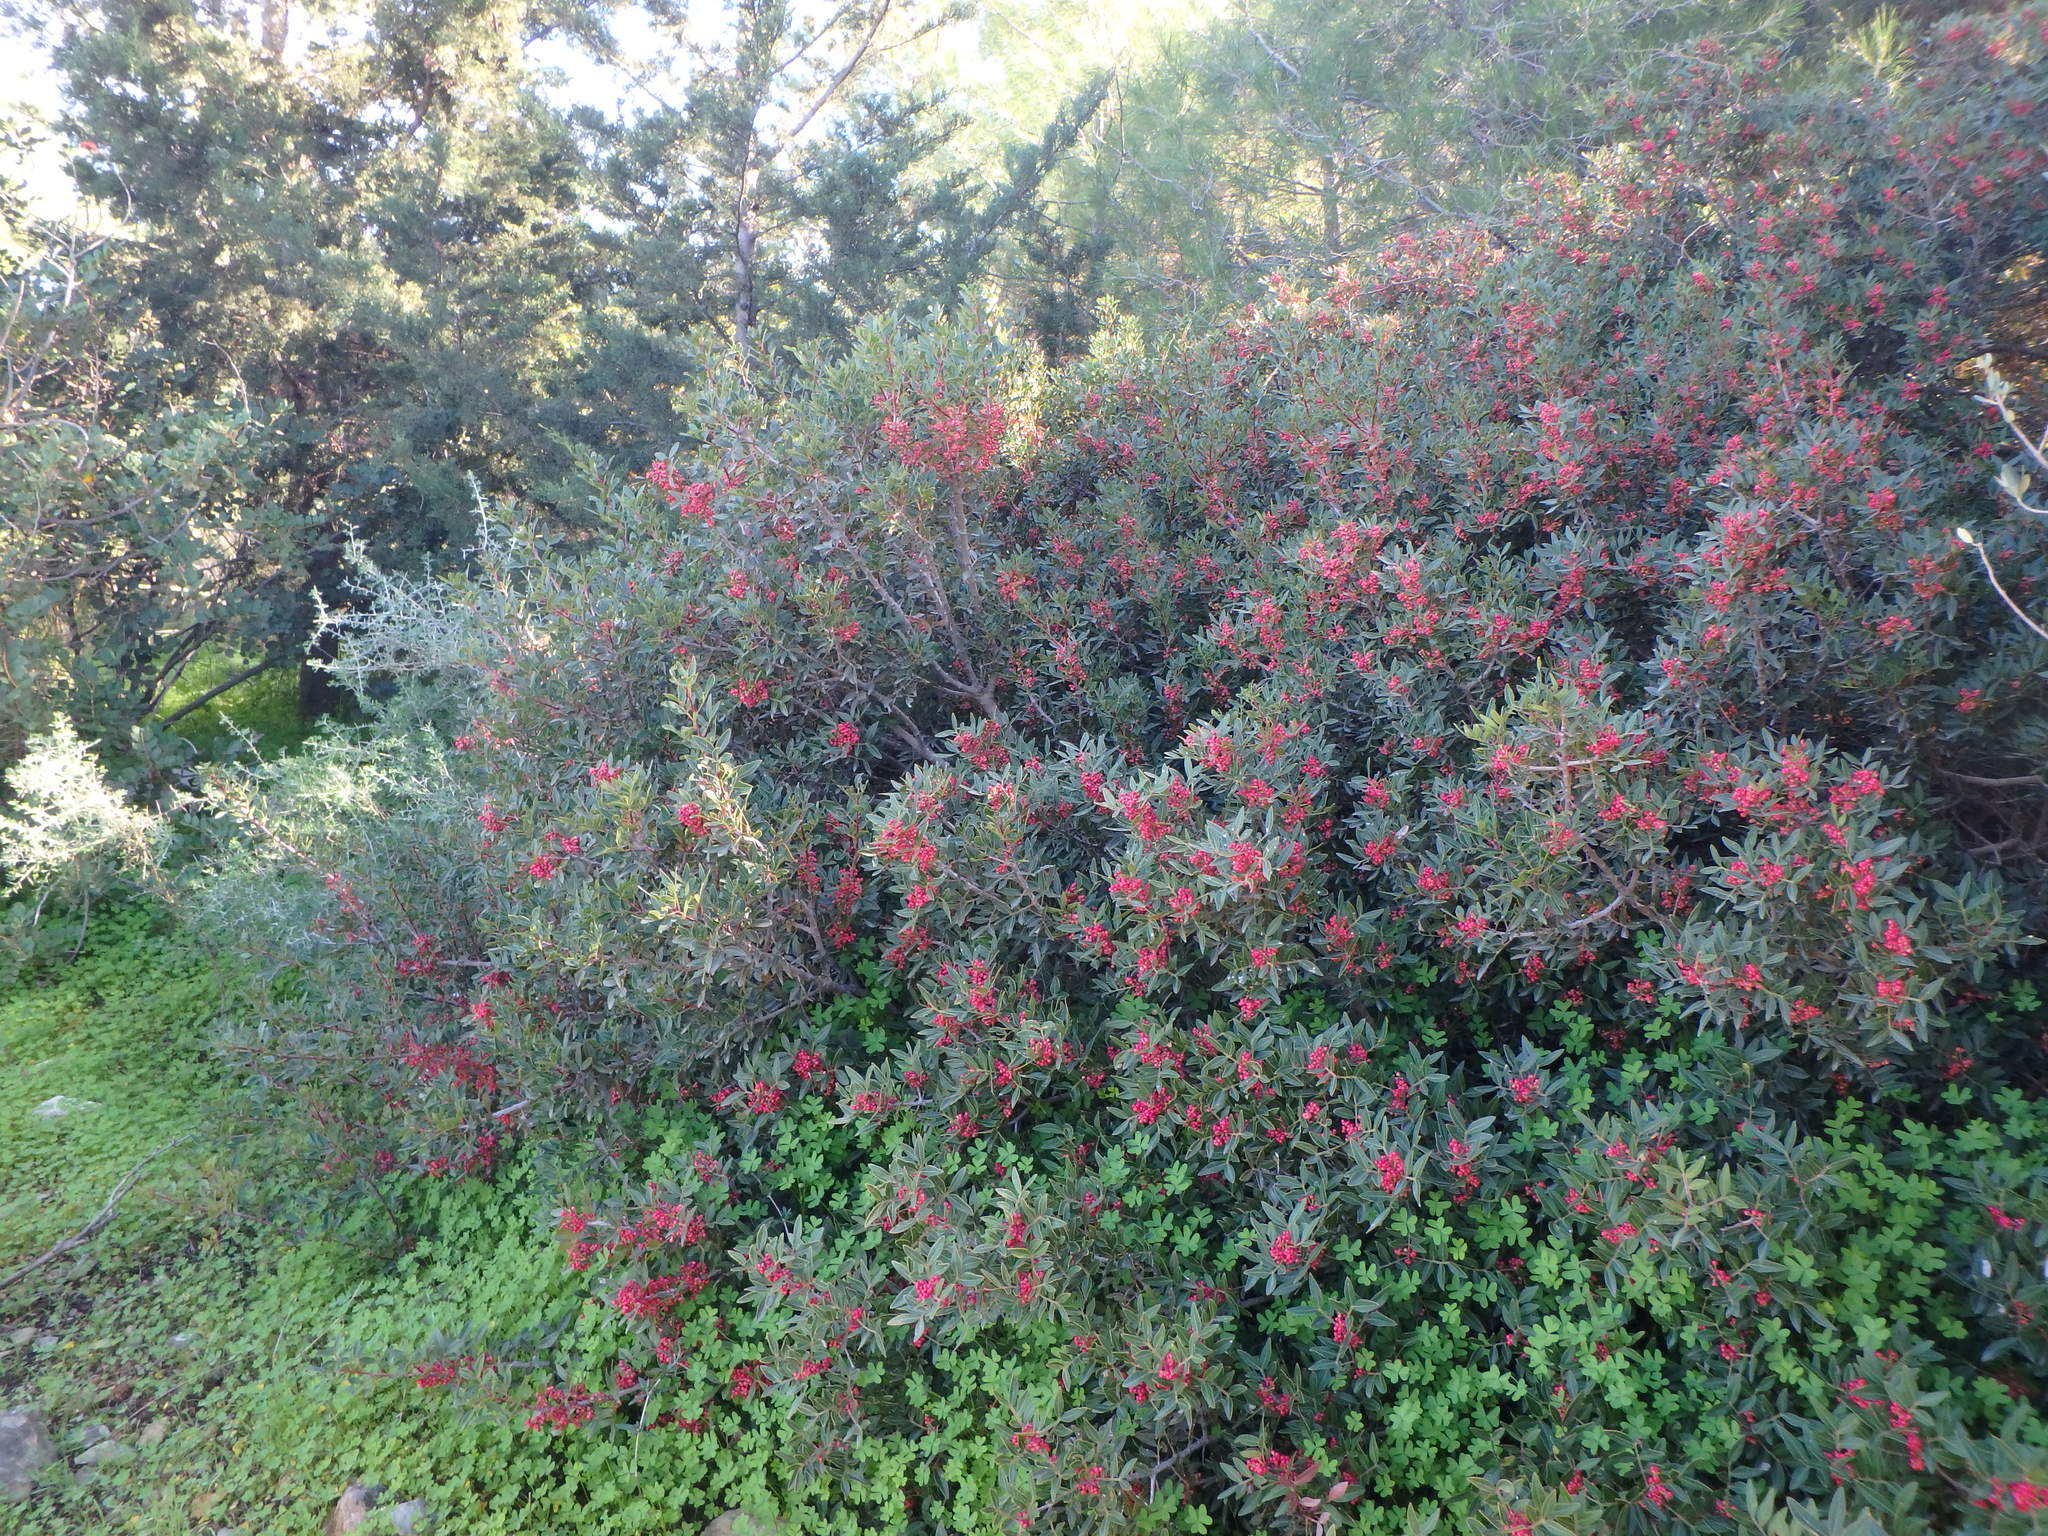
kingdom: Plantae
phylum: Tracheophyta
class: Magnoliopsida
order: Sapindales
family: Anacardiaceae
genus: Pistacia
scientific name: Pistacia lentiscus
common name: Lentisk
